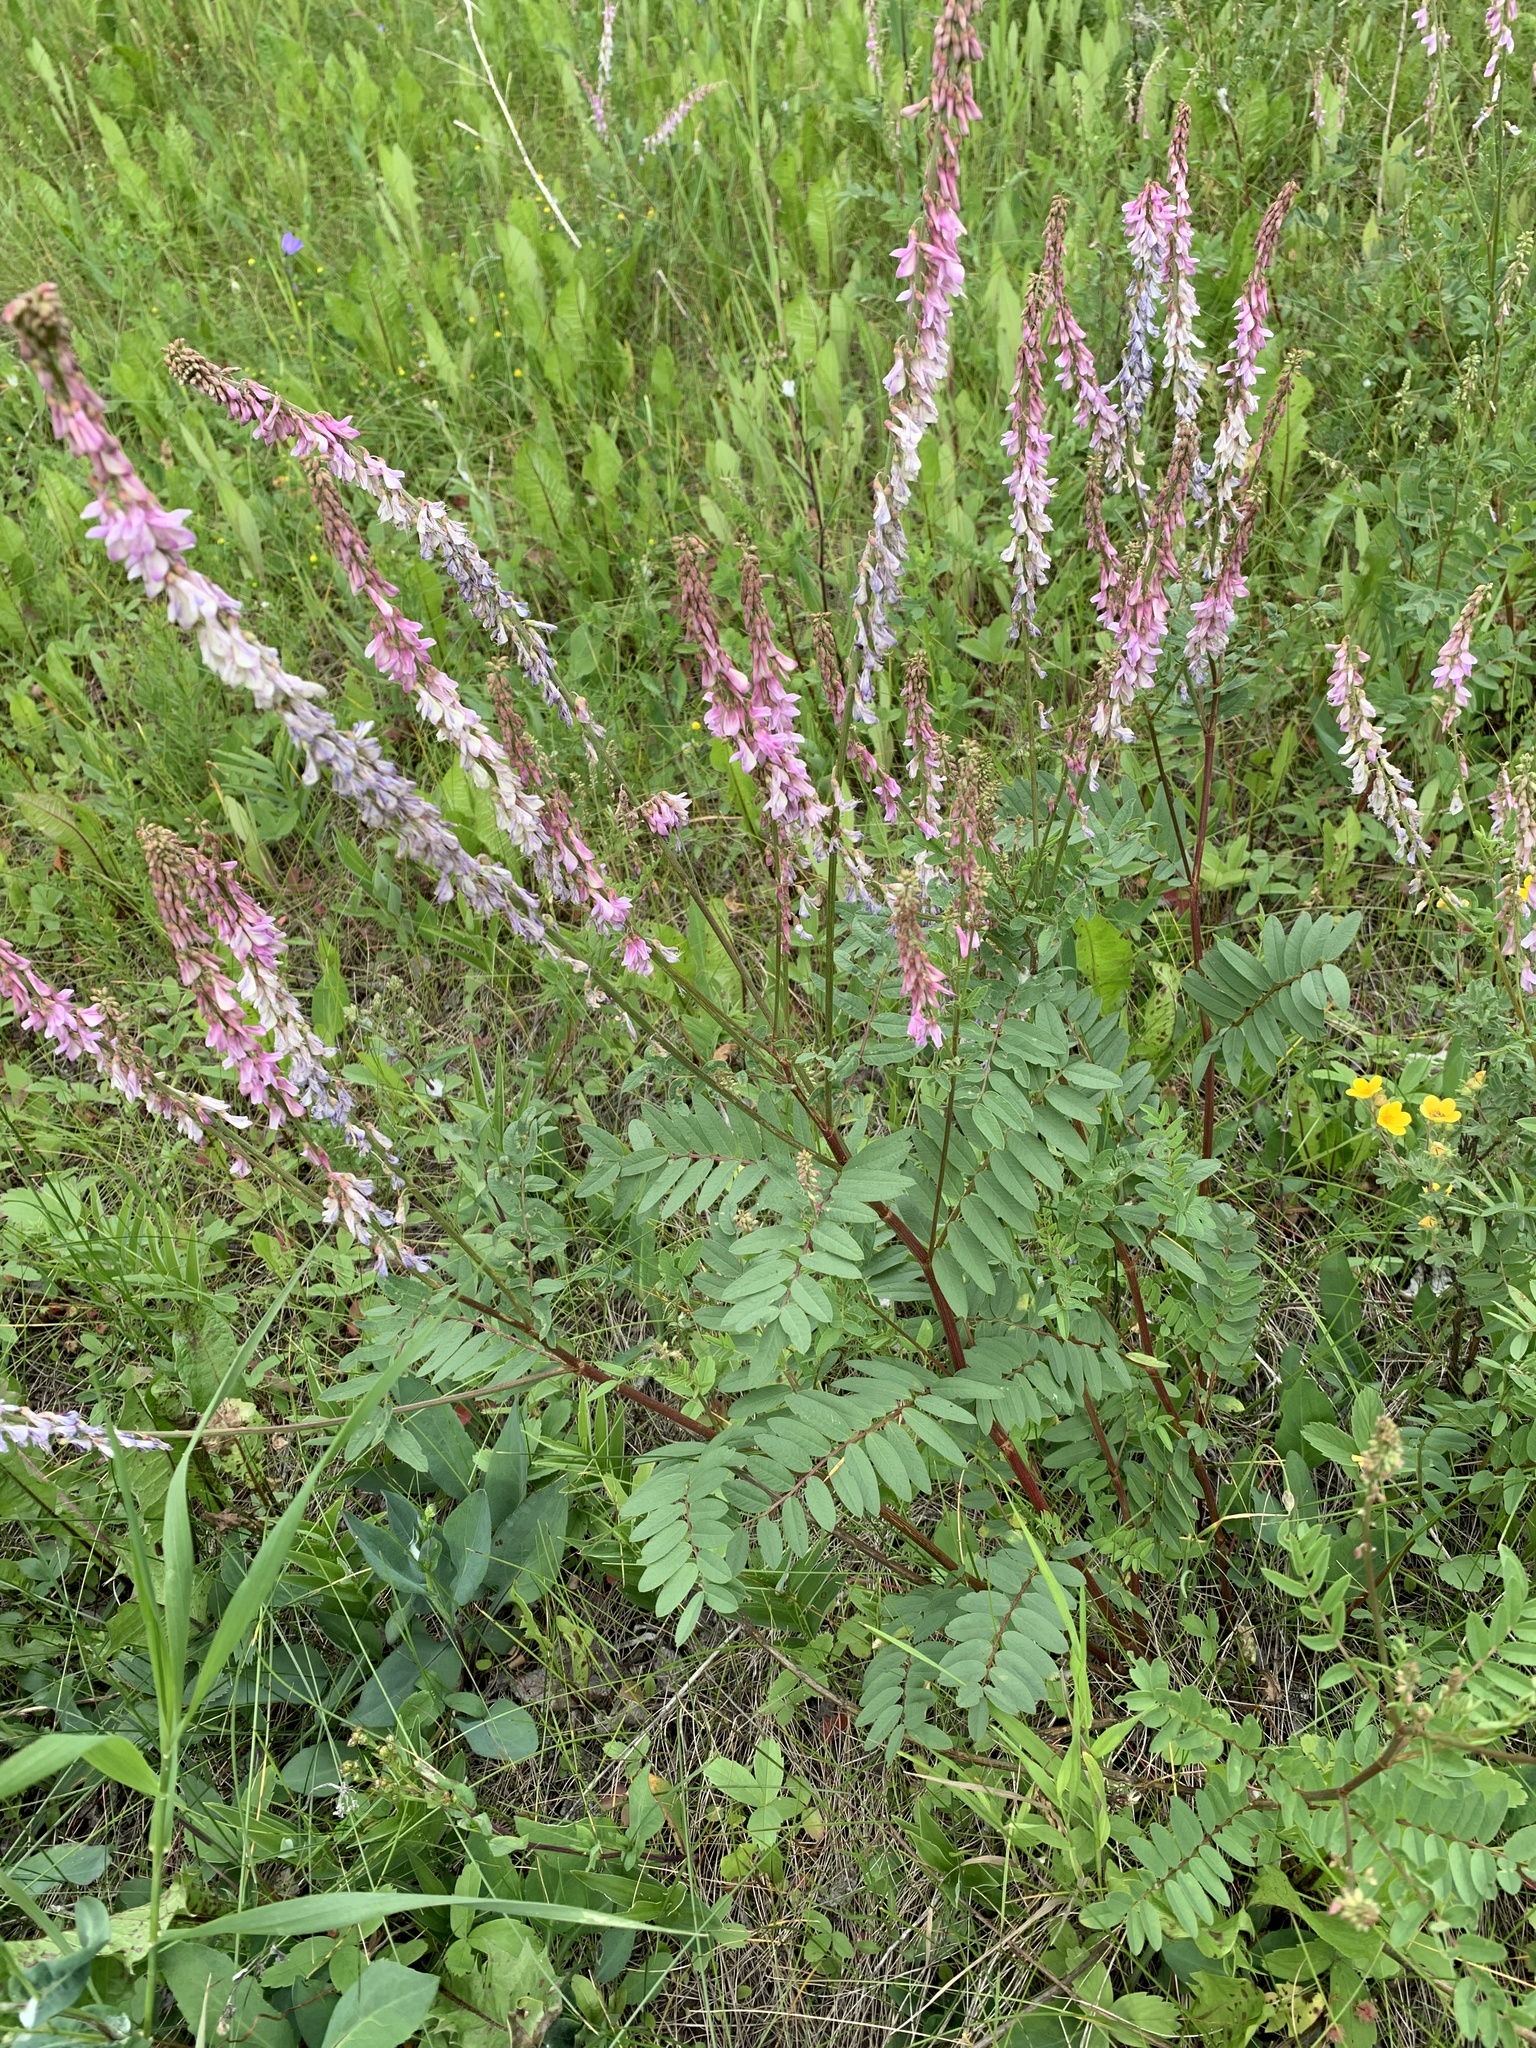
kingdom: Plantae
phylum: Tracheophyta
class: Magnoliopsida
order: Fabales
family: Fabaceae
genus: Hedysarum
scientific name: Hedysarum
